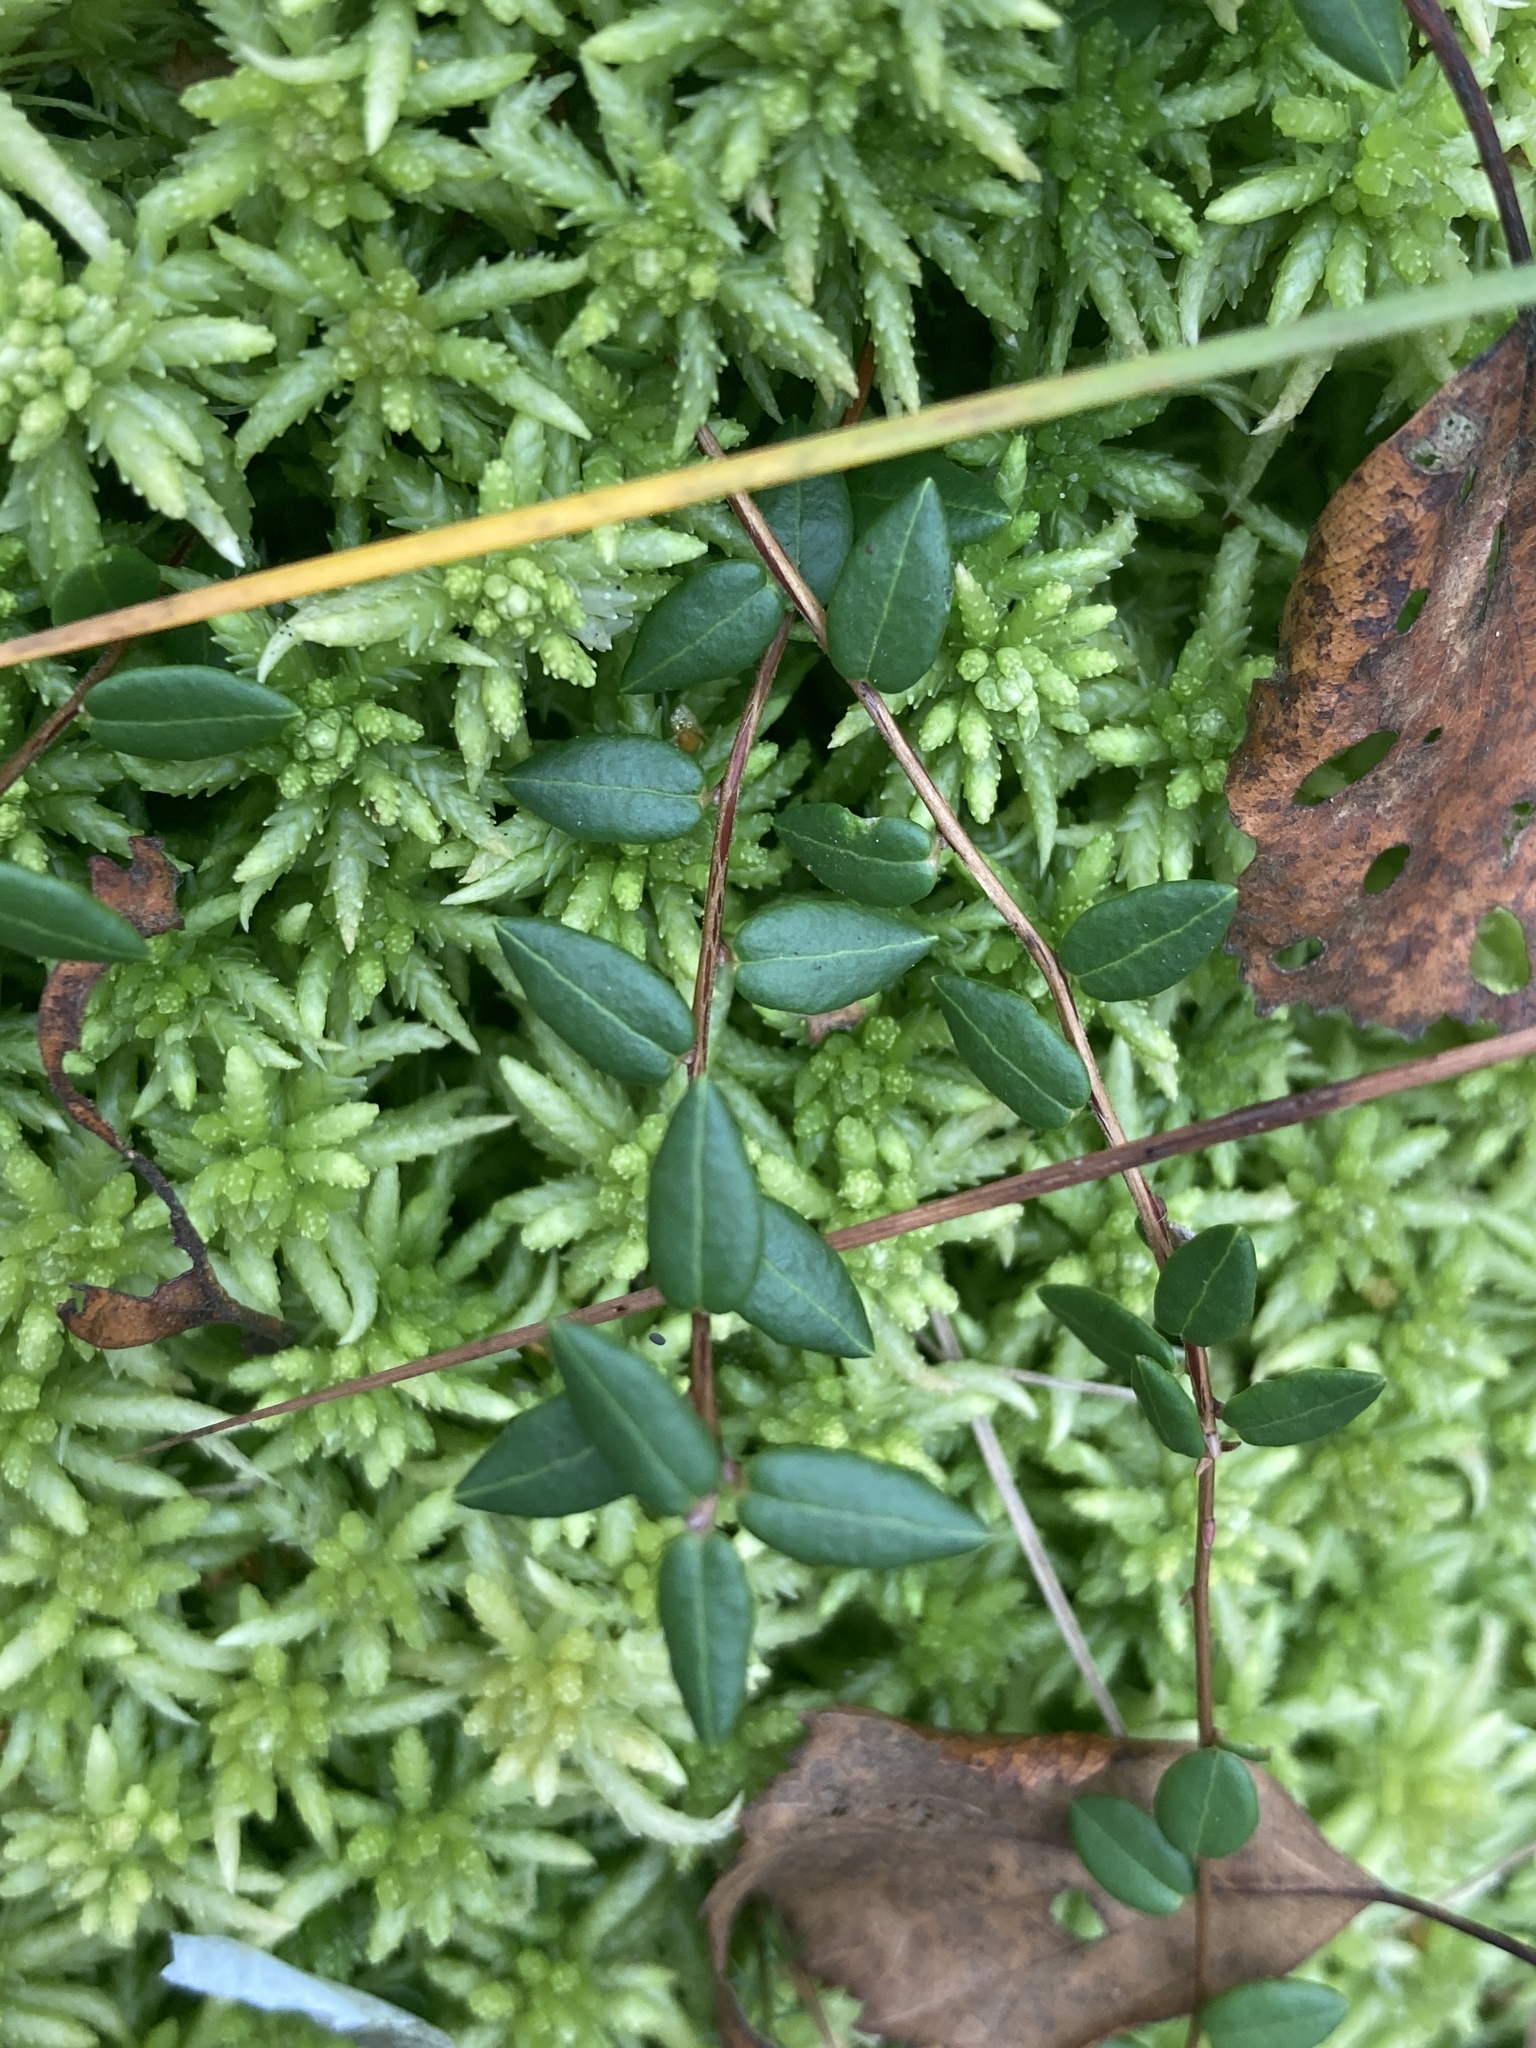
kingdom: Plantae
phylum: Tracheophyta
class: Magnoliopsida
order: Ericales
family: Ericaceae
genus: Vaccinium
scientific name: Vaccinium oxycoccos
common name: Cranberry
